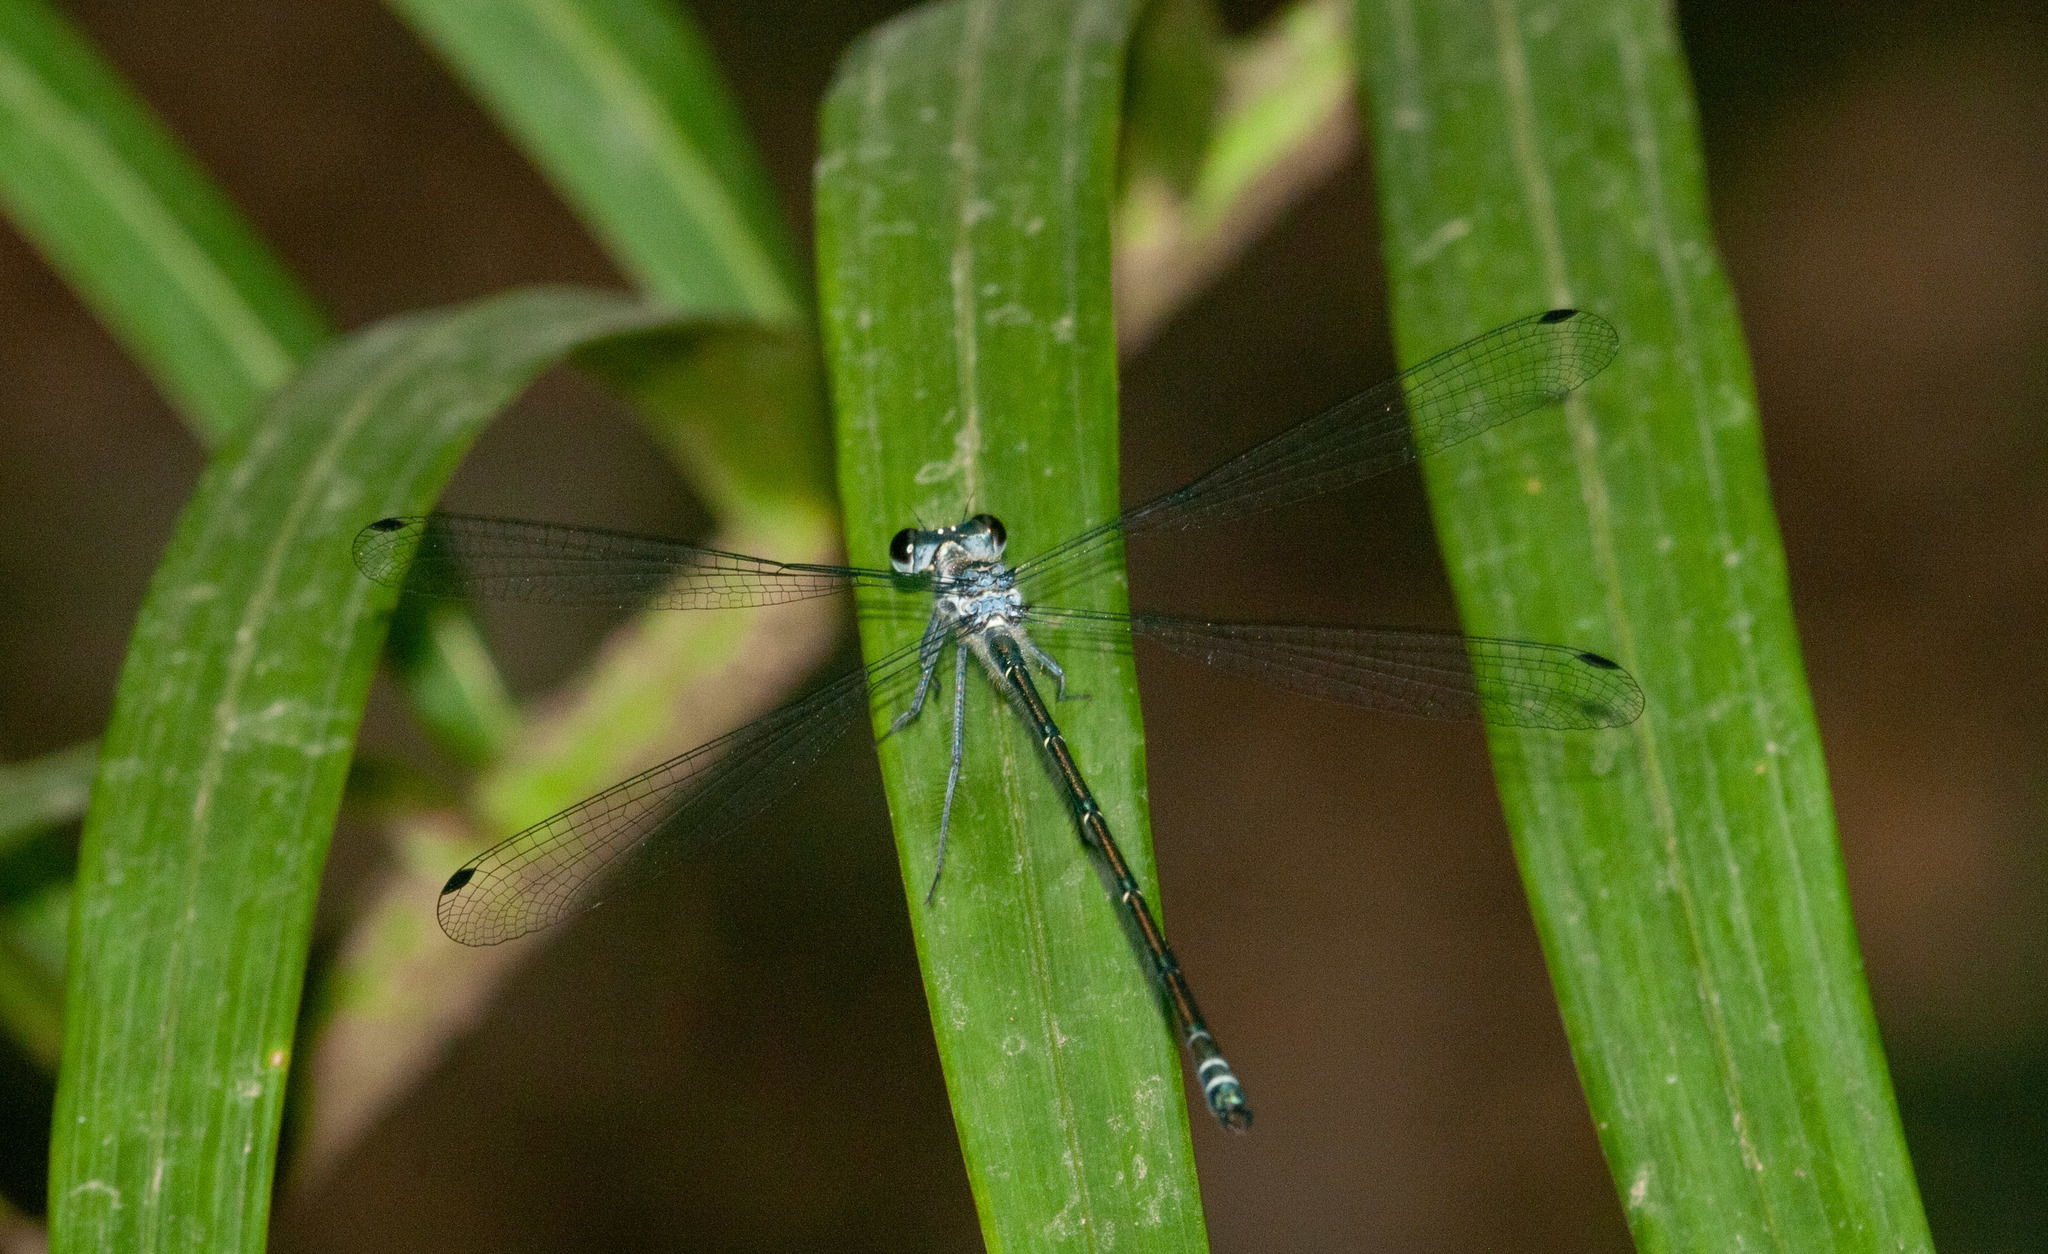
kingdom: Animalia
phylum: Arthropoda
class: Insecta
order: Odonata
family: Argiolestidae
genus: Austroargiolestes
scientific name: Austroargiolestes icteromelas
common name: Common flatwing
